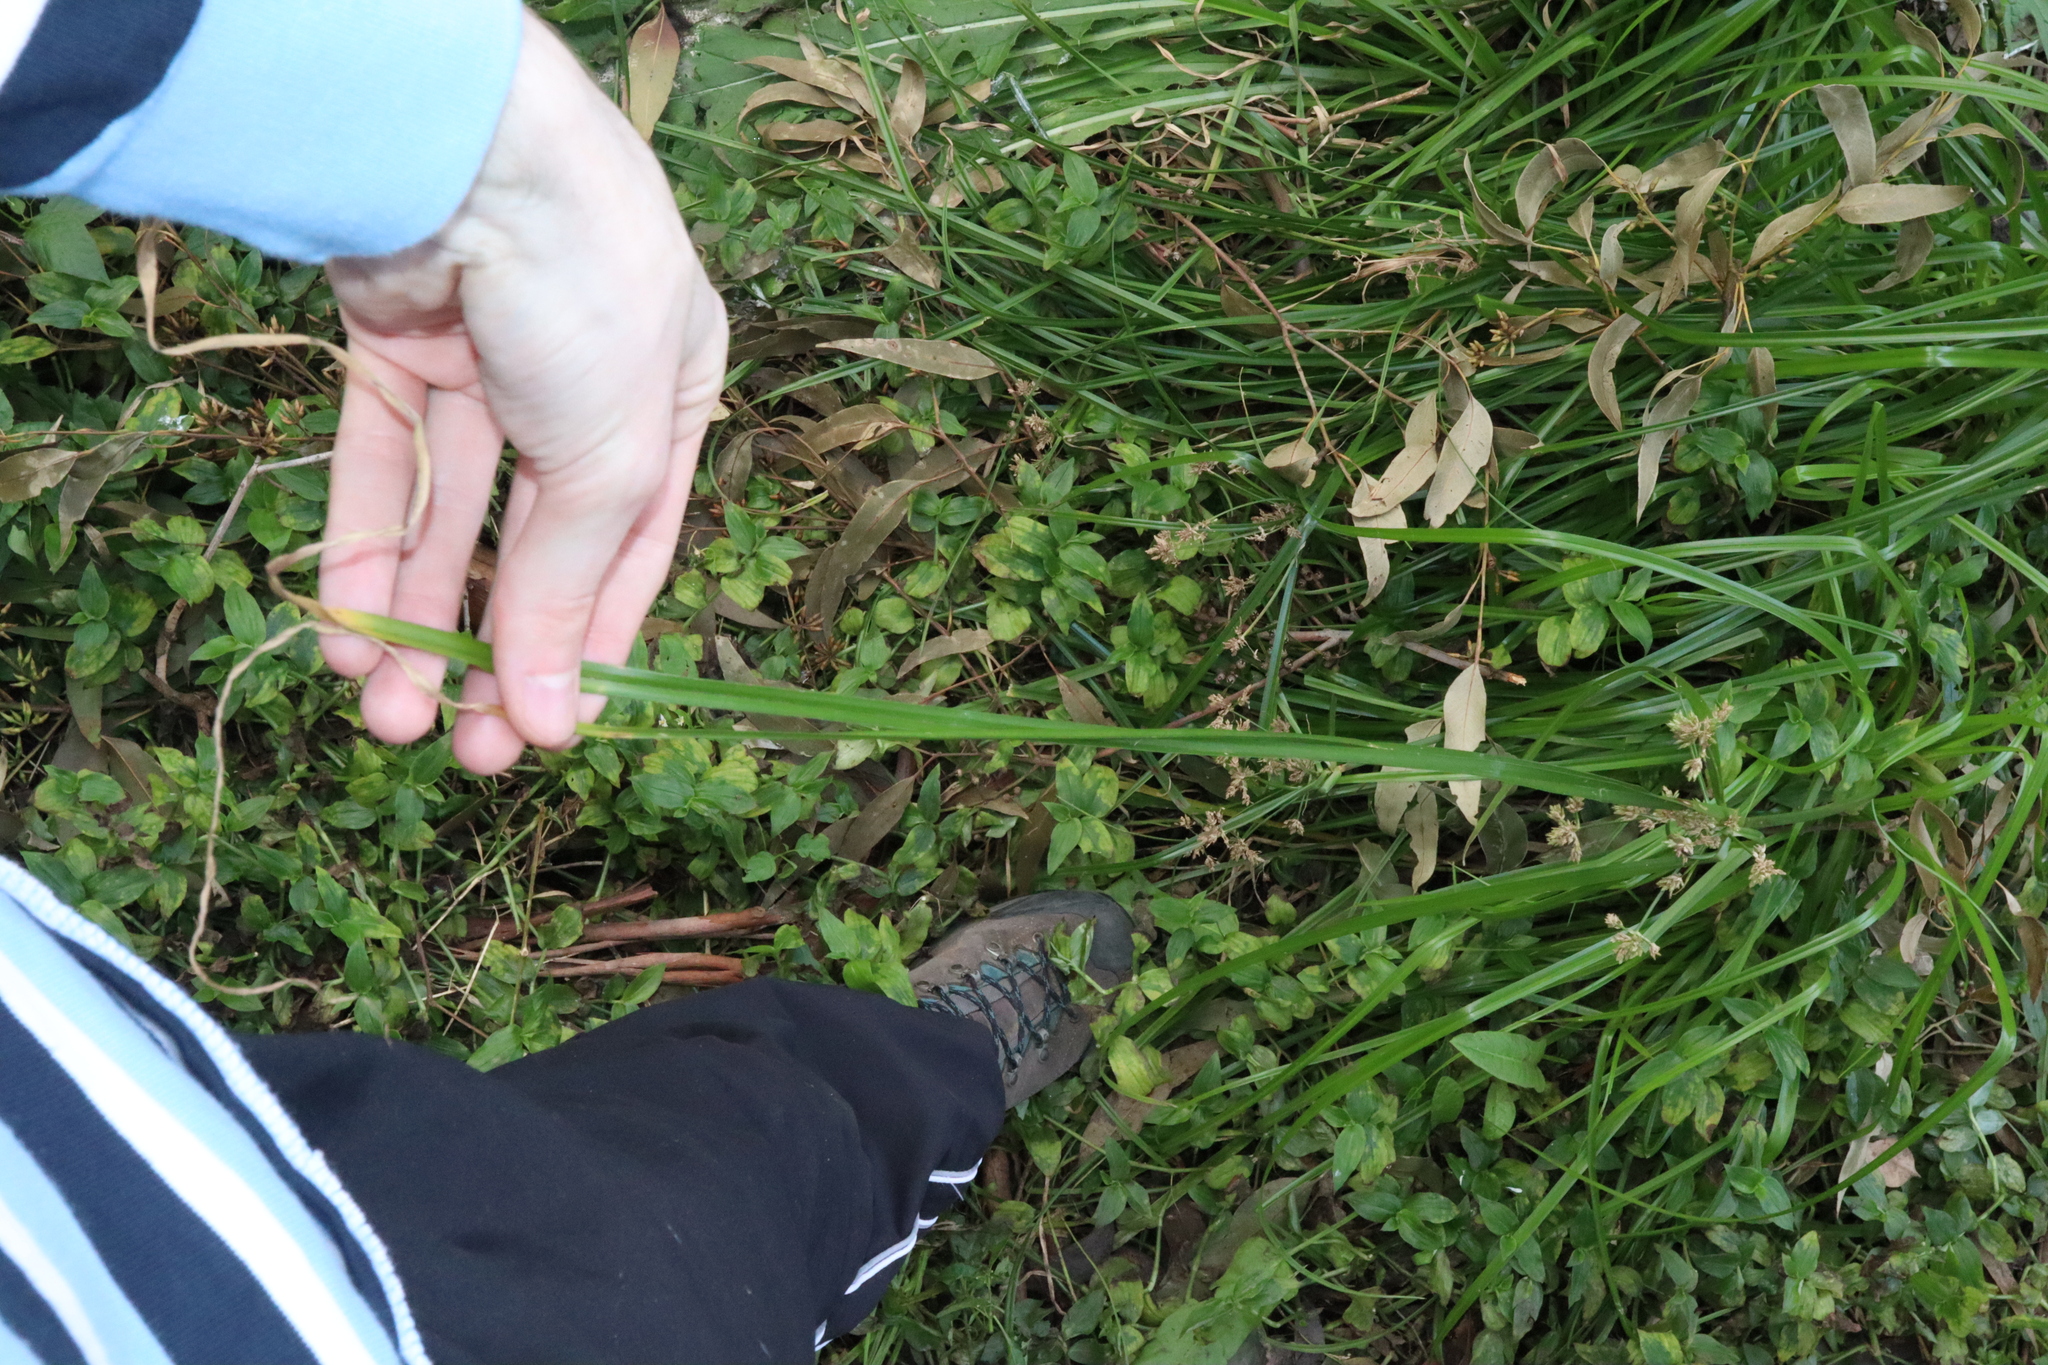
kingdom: Plantae
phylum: Tracheophyta
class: Liliopsida
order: Poales
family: Cyperaceae
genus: Cyperus
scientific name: Cyperus eragrostis
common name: Tall flatsedge
